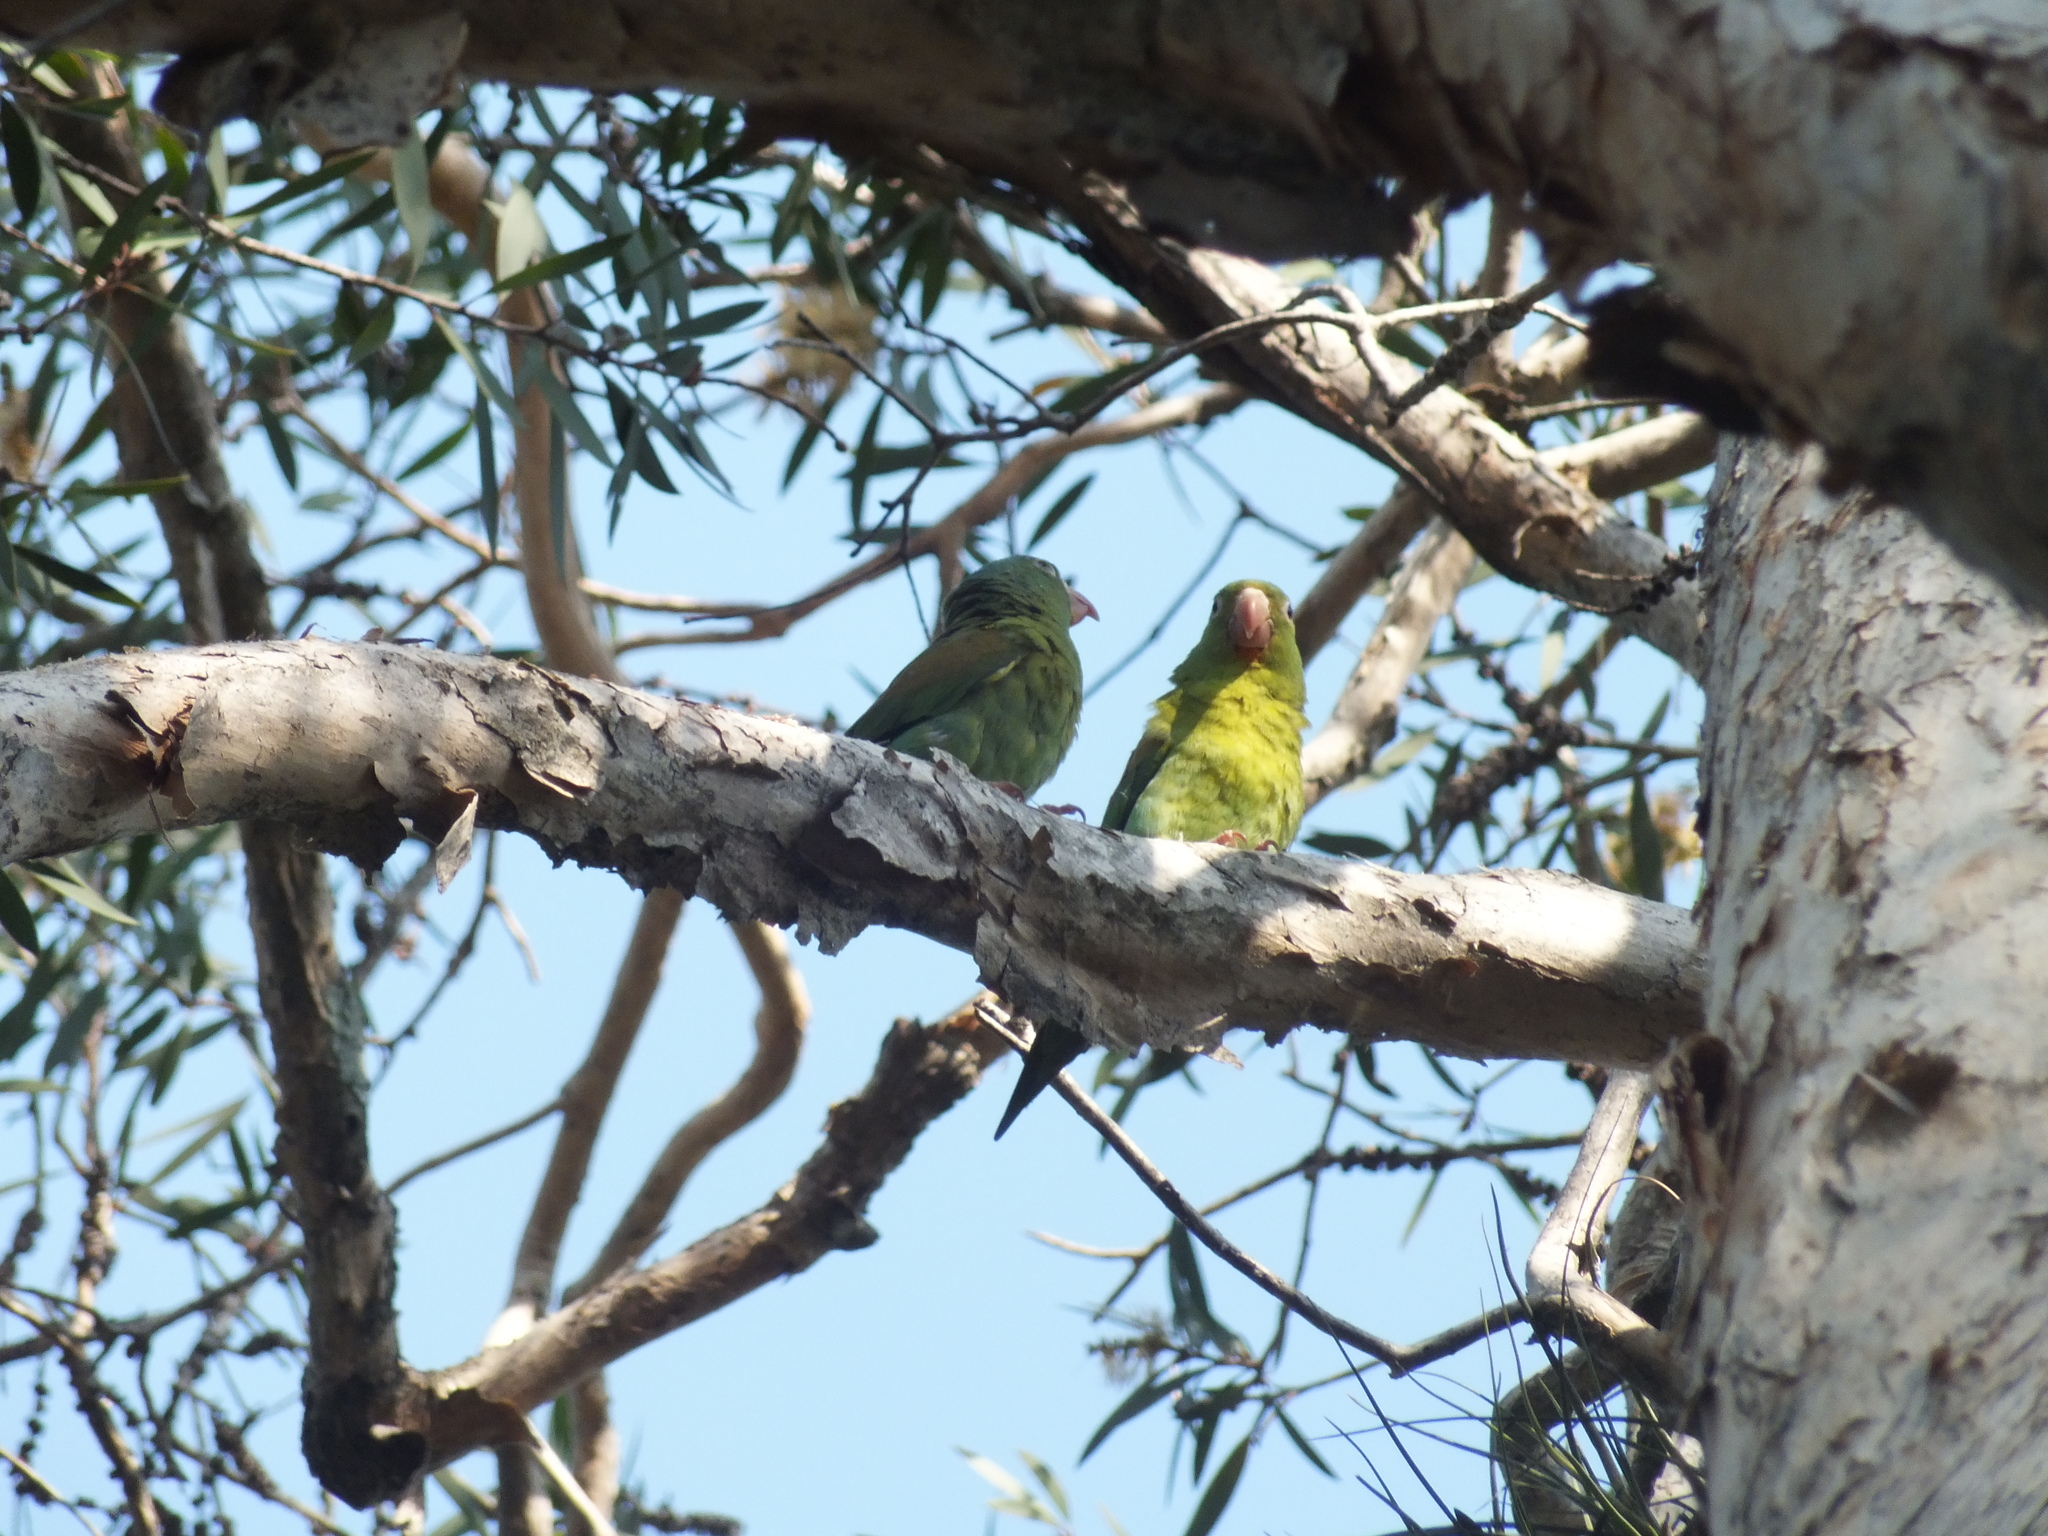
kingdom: Animalia
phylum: Chordata
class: Aves
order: Psittaciformes
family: Psittacidae
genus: Brotogeris
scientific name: Brotogeris jugularis
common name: Orange-chinned parakeet
